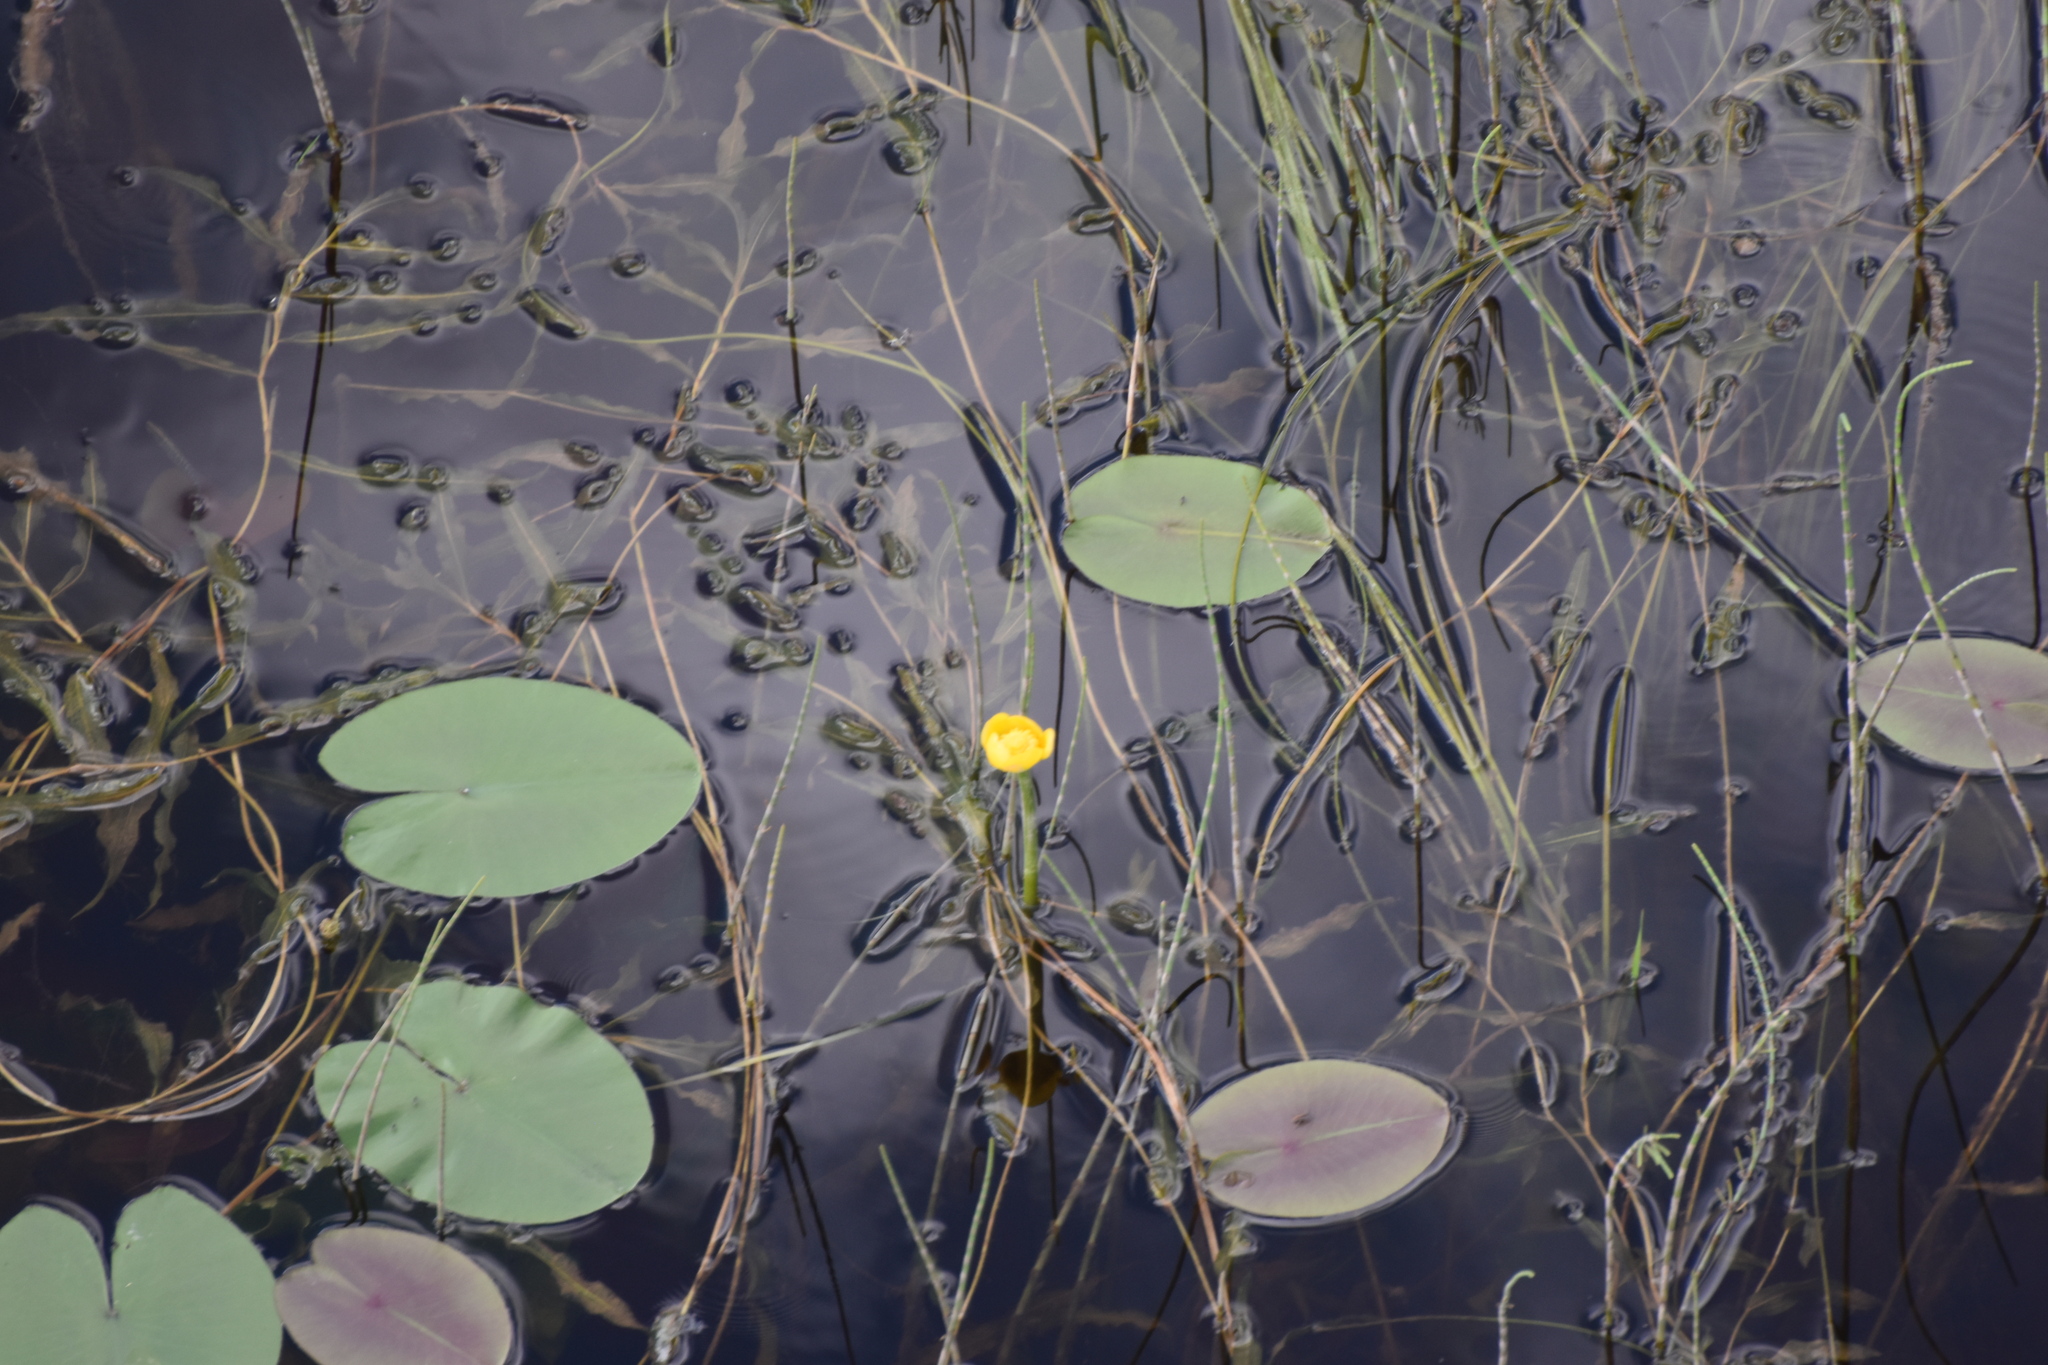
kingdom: Plantae
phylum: Tracheophyta
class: Magnoliopsida
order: Nymphaeales
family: Nymphaeaceae
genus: Nuphar
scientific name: Nuphar lutea
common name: Yellow water-lily
